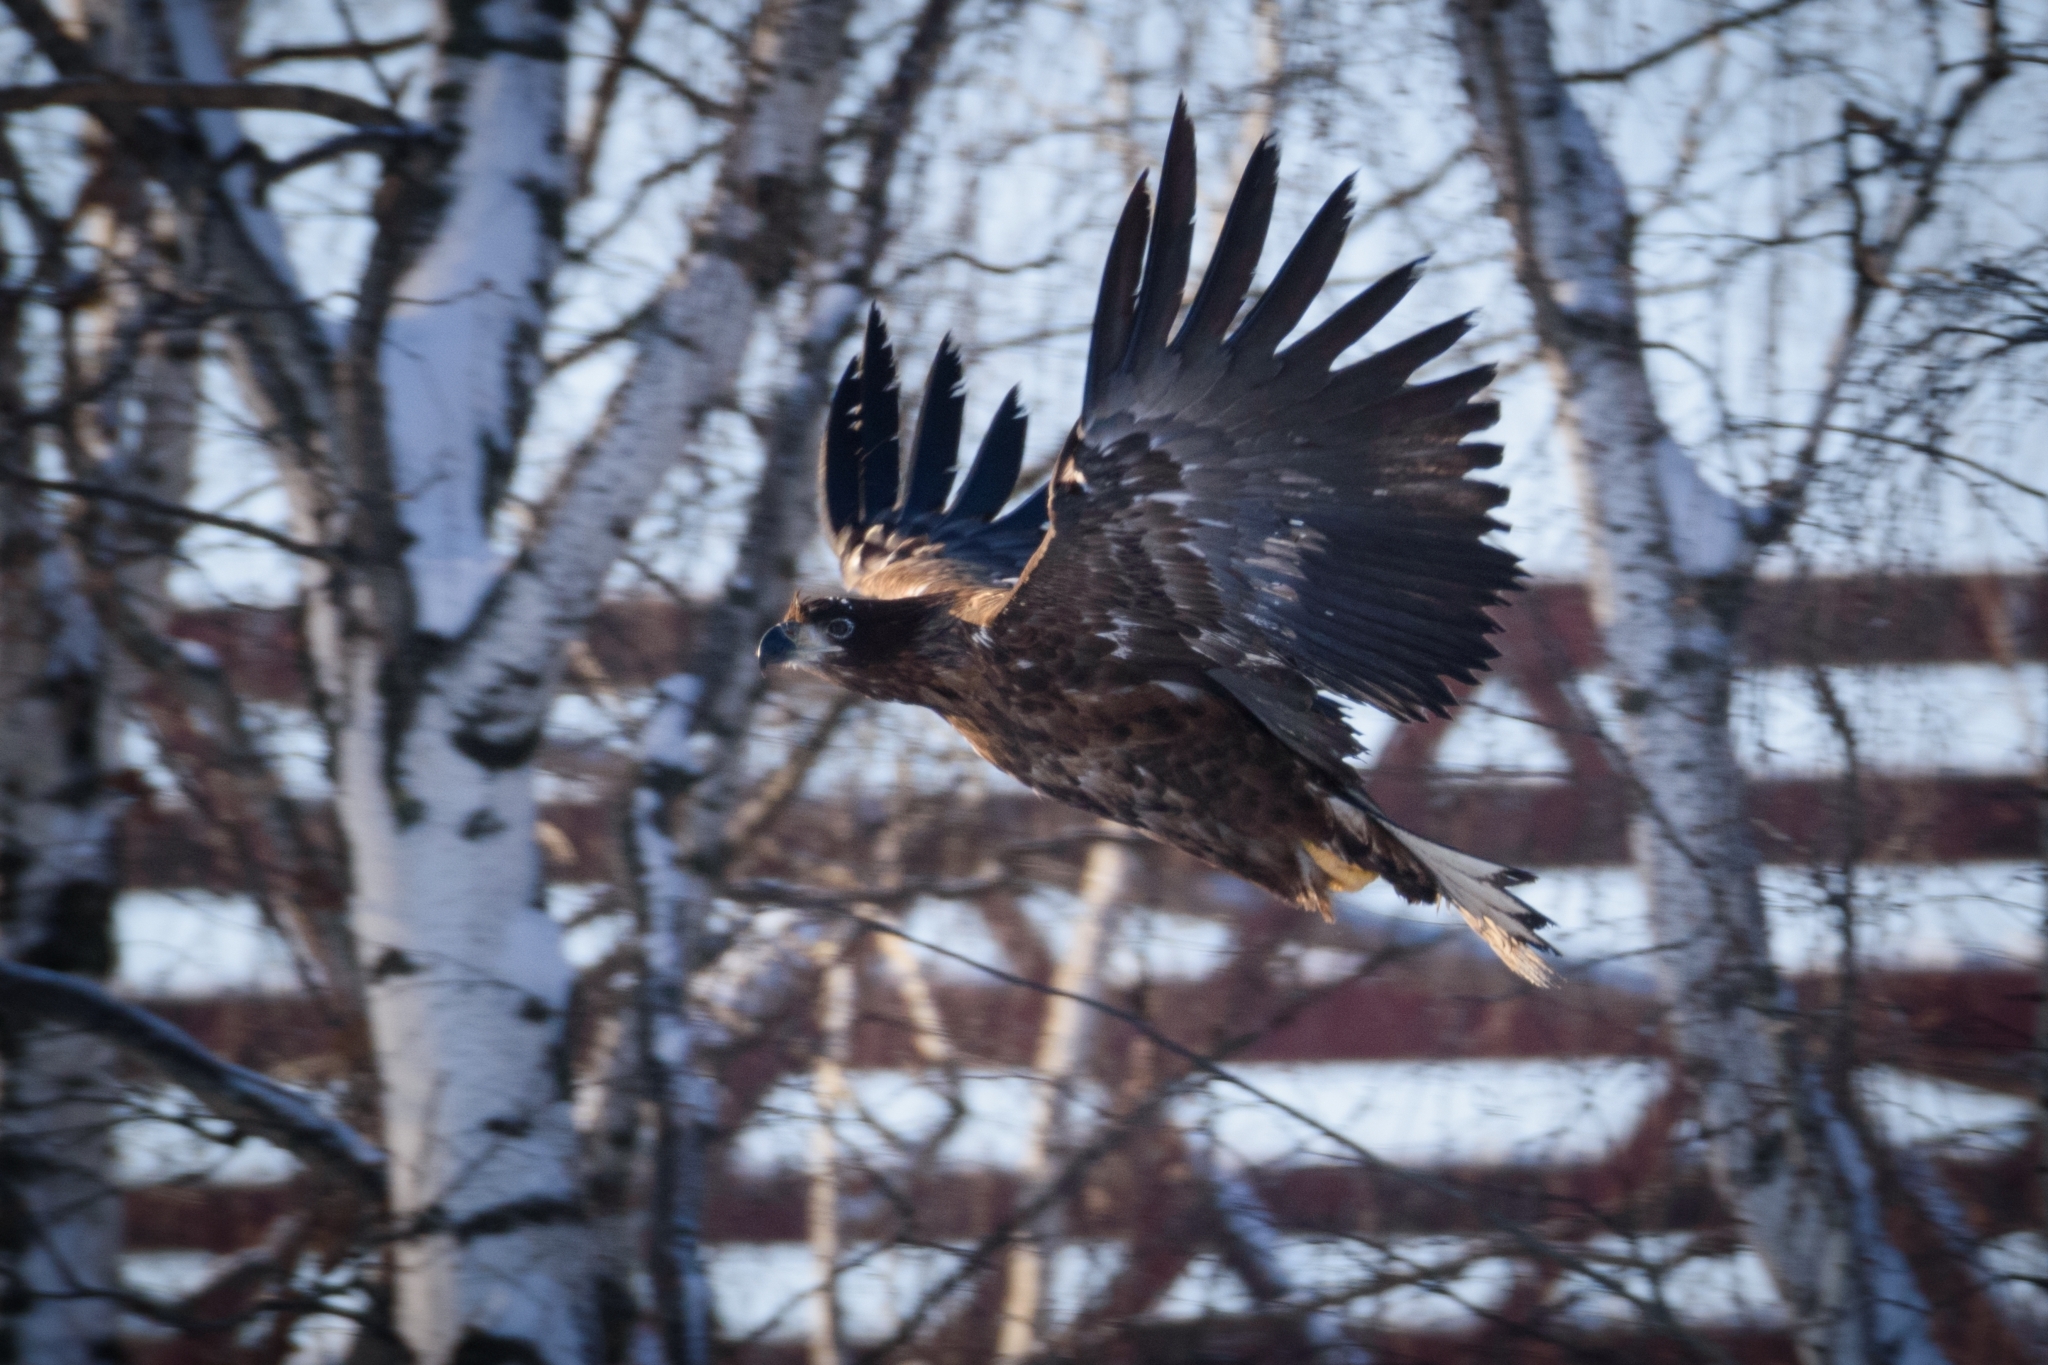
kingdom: Animalia
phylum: Chordata
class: Aves
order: Accipitriformes
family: Accipitridae
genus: Haliaeetus
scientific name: Haliaeetus albicilla
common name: White-tailed eagle
